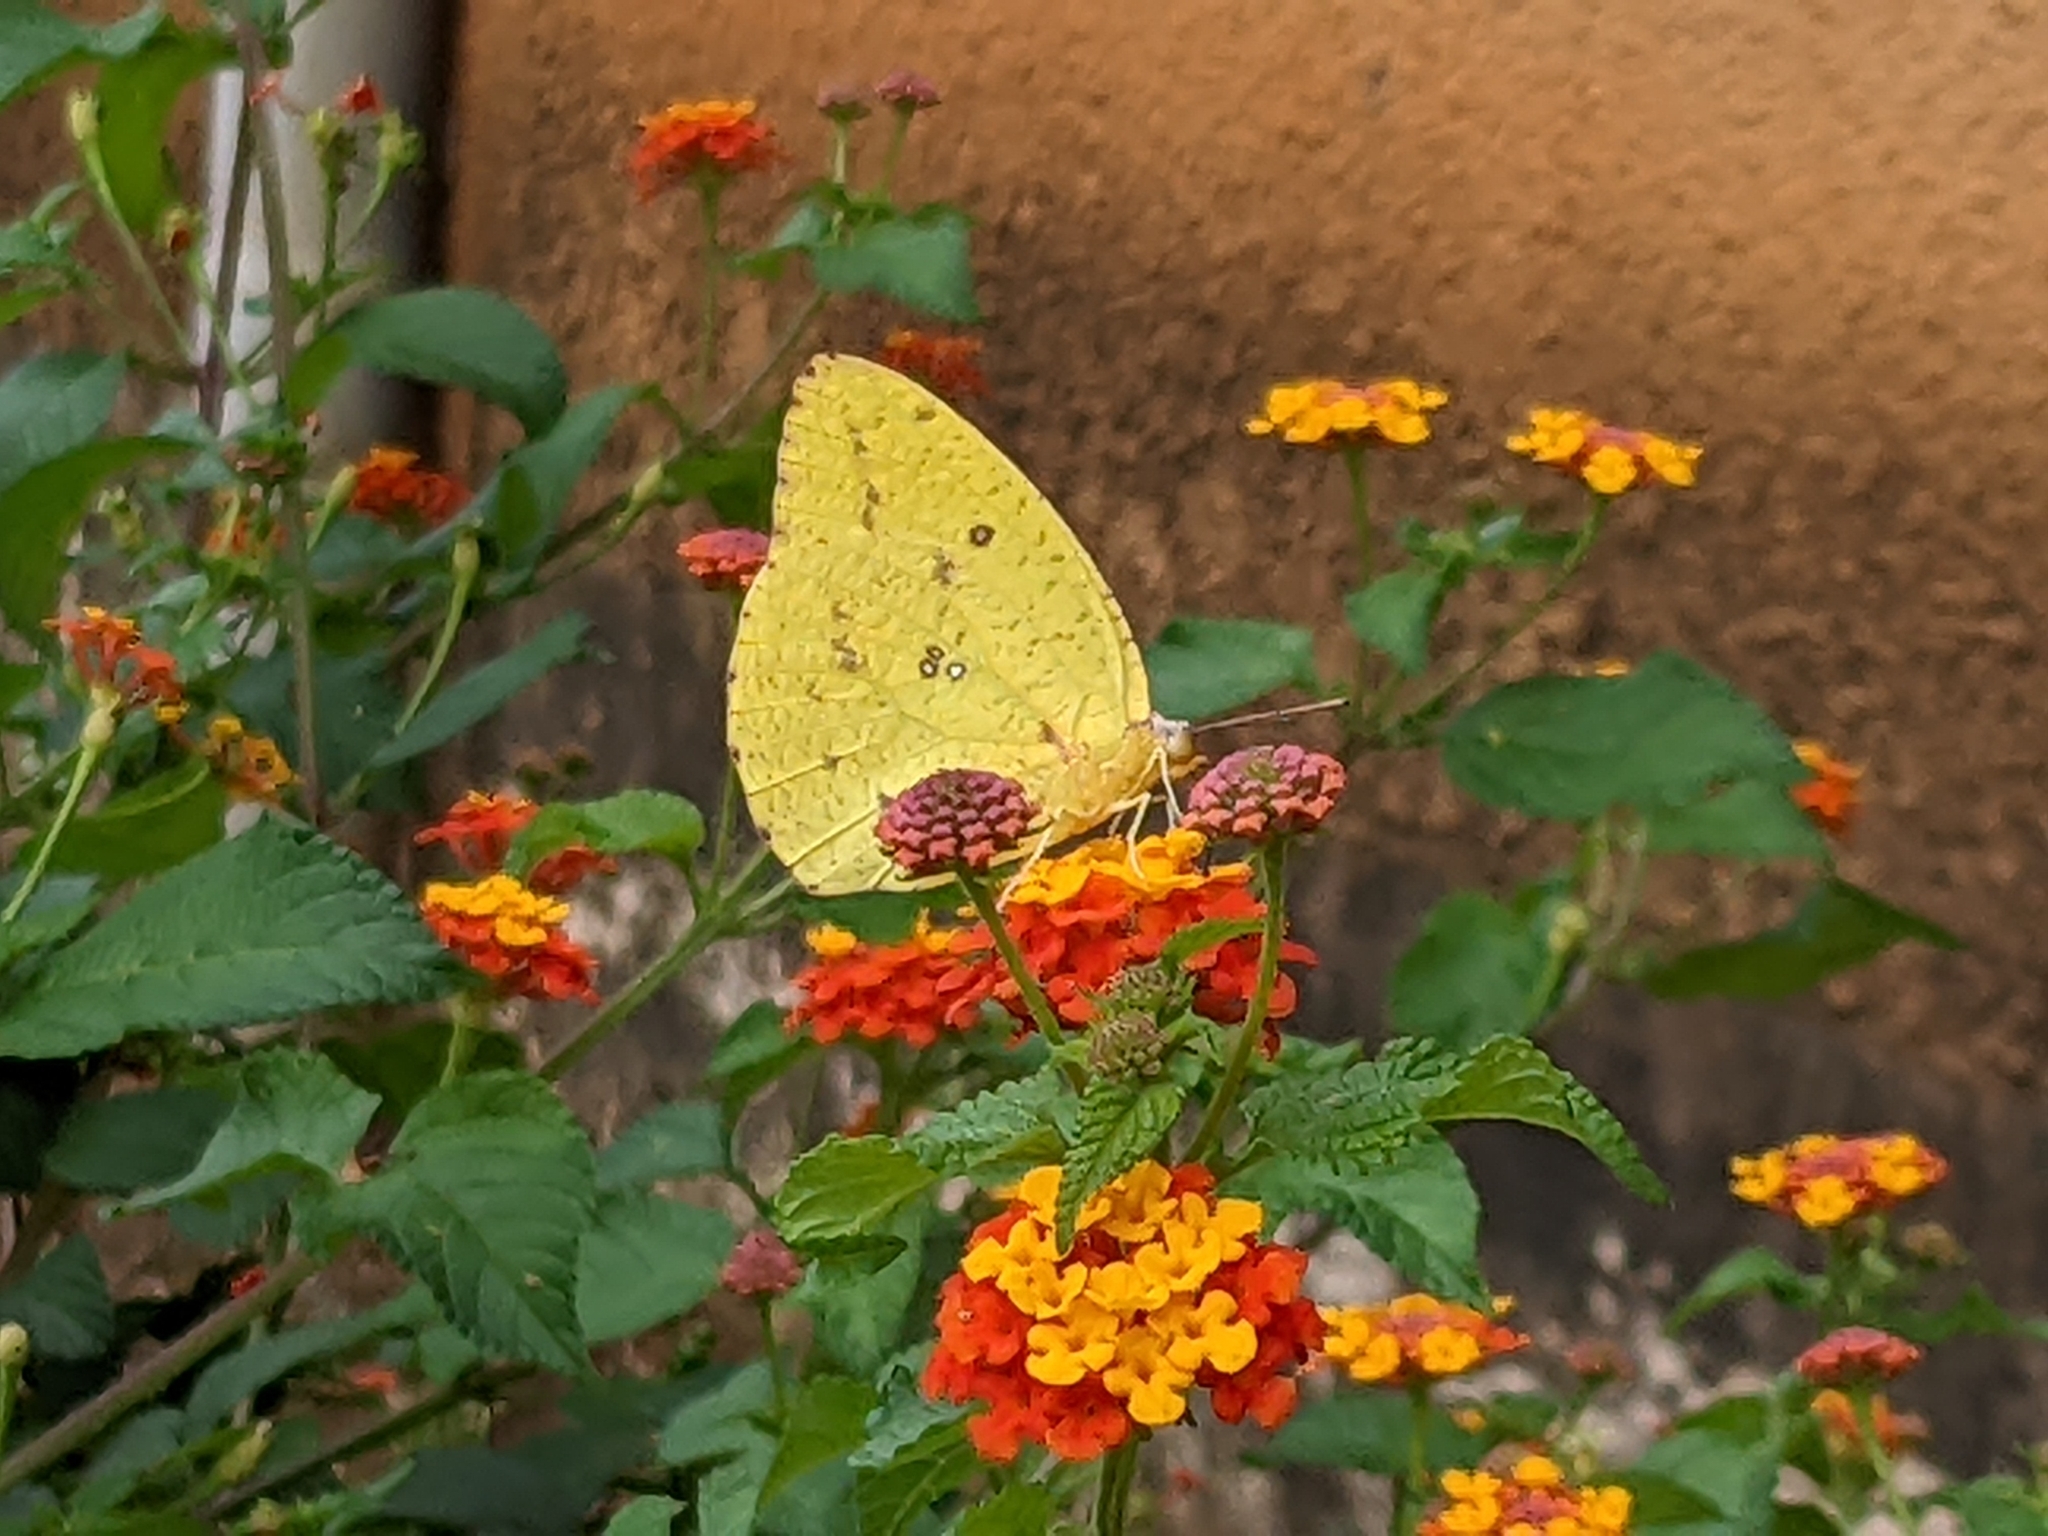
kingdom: Animalia
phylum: Arthropoda
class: Insecta
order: Lepidoptera
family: Pieridae
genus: Catopsilia
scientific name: Catopsilia florella
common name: African migrant
